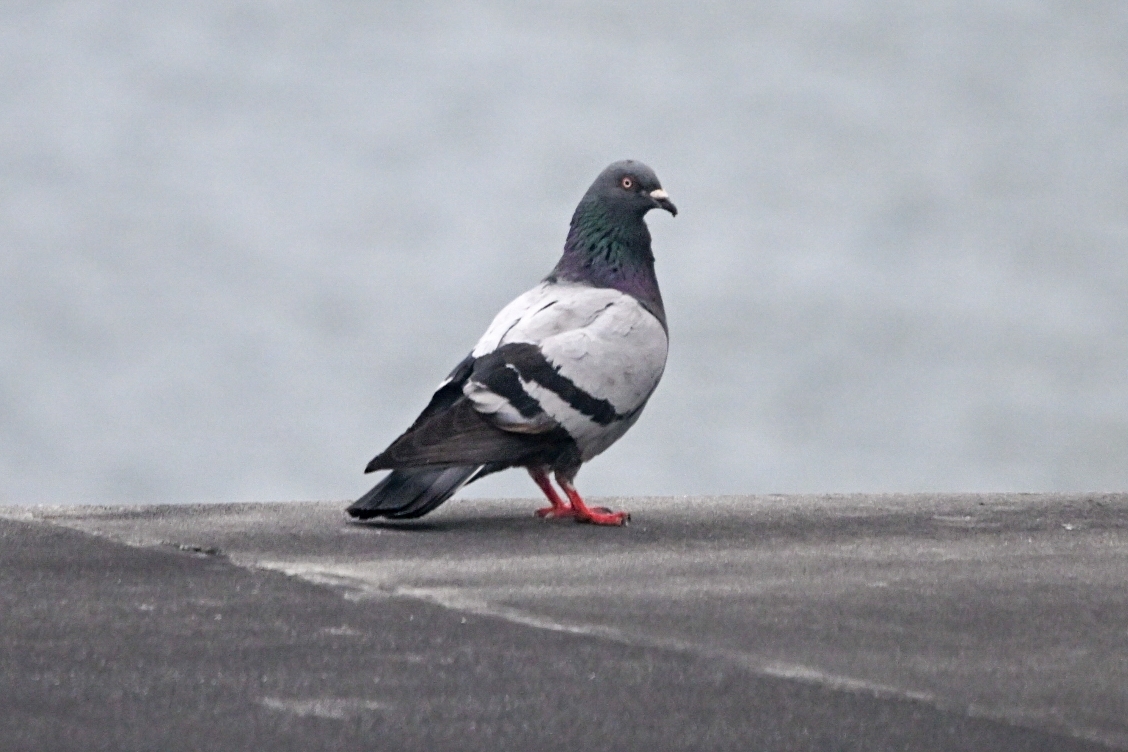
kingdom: Animalia
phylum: Chordata
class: Aves
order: Columbiformes
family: Columbidae
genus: Columba
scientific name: Columba livia
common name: Rock pigeon
